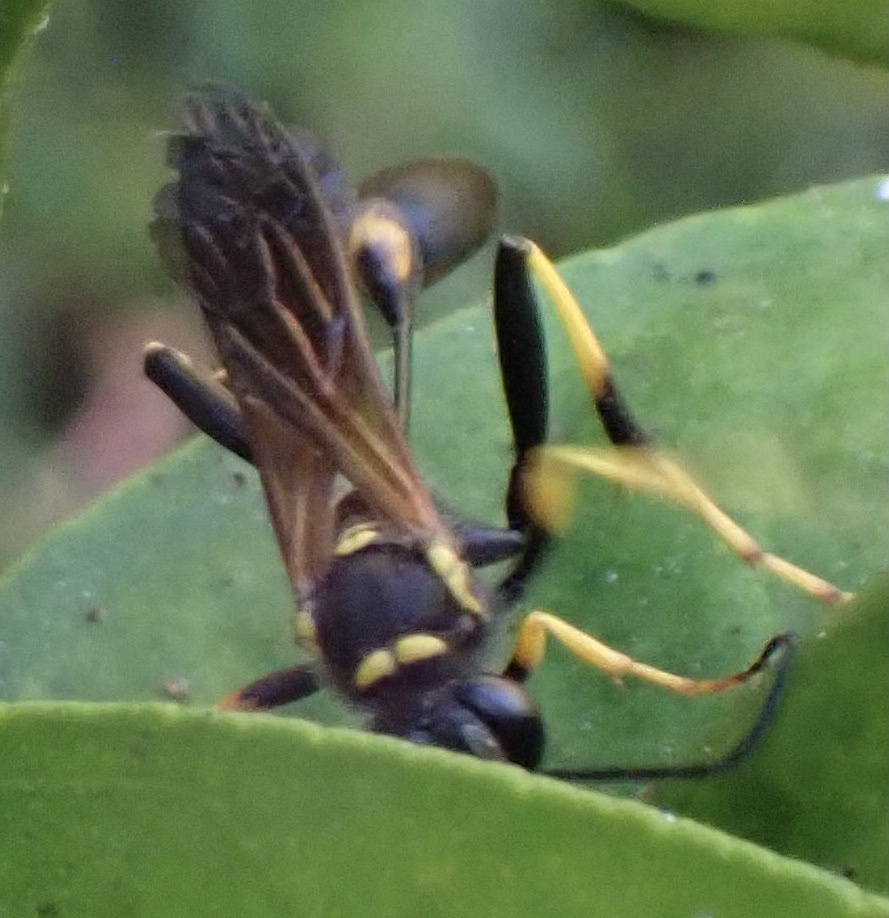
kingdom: Animalia
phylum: Arthropoda
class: Insecta
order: Hymenoptera
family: Sphecidae
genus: Sceliphron
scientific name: Sceliphron caementarium
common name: Mud dauber
